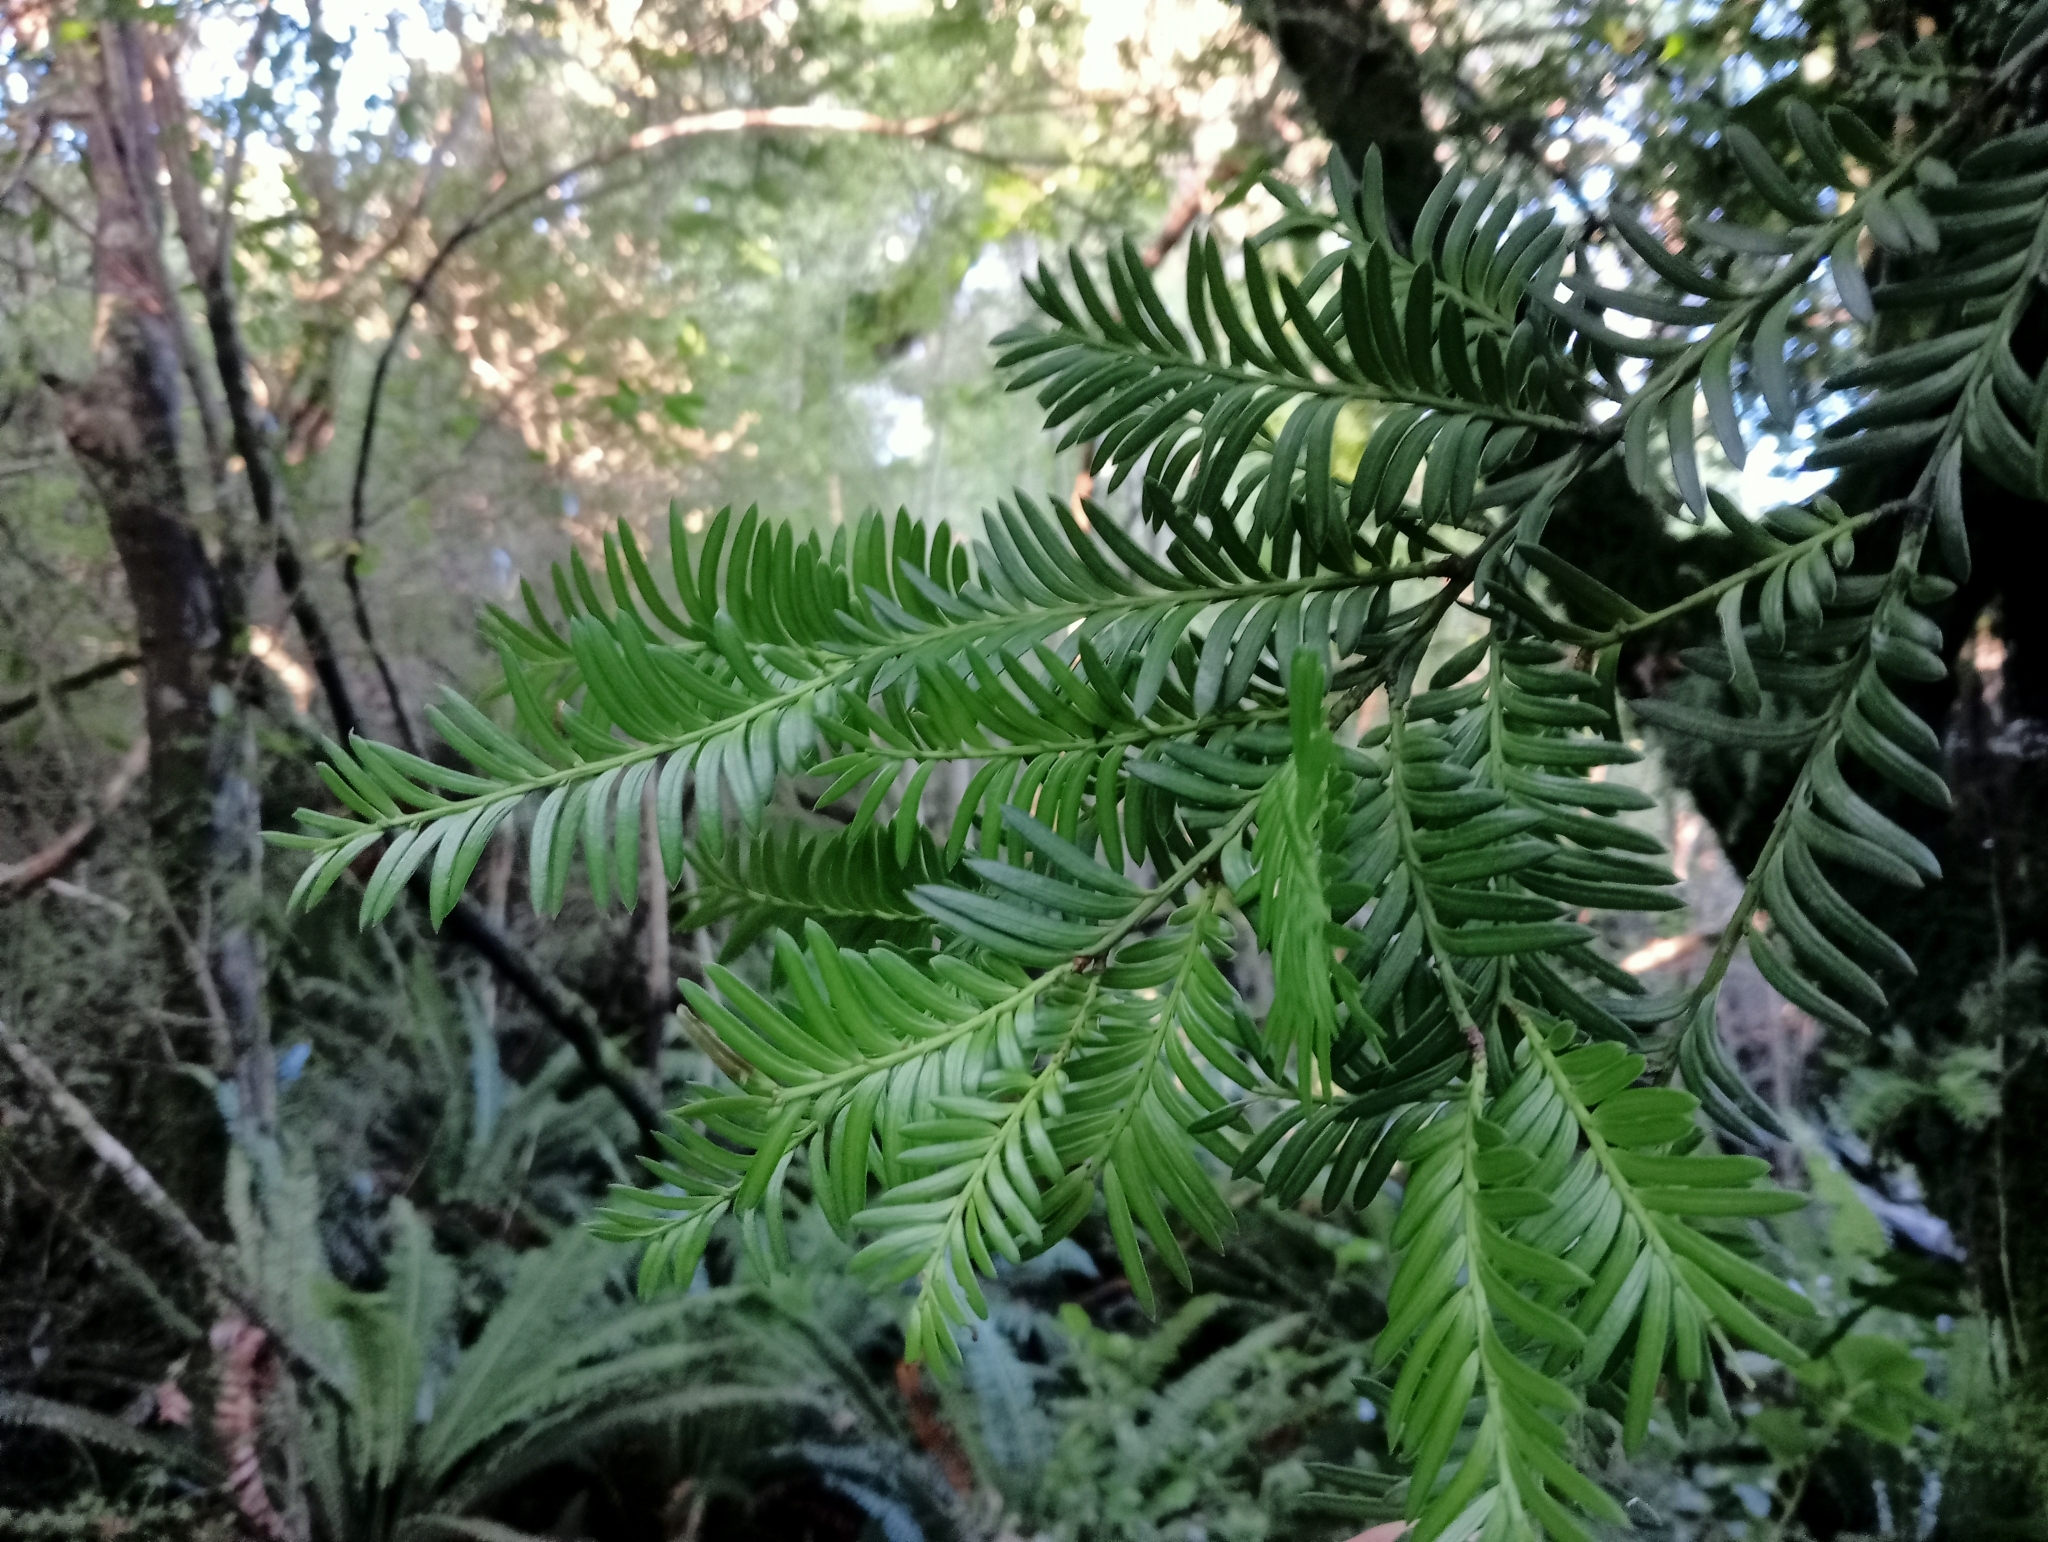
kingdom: Plantae
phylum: Tracheophyta
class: Pinopsida
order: Pinales
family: Podocarpaceae
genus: Prumnopitys
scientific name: Prumnopitys ferruginea
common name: Brown pine
